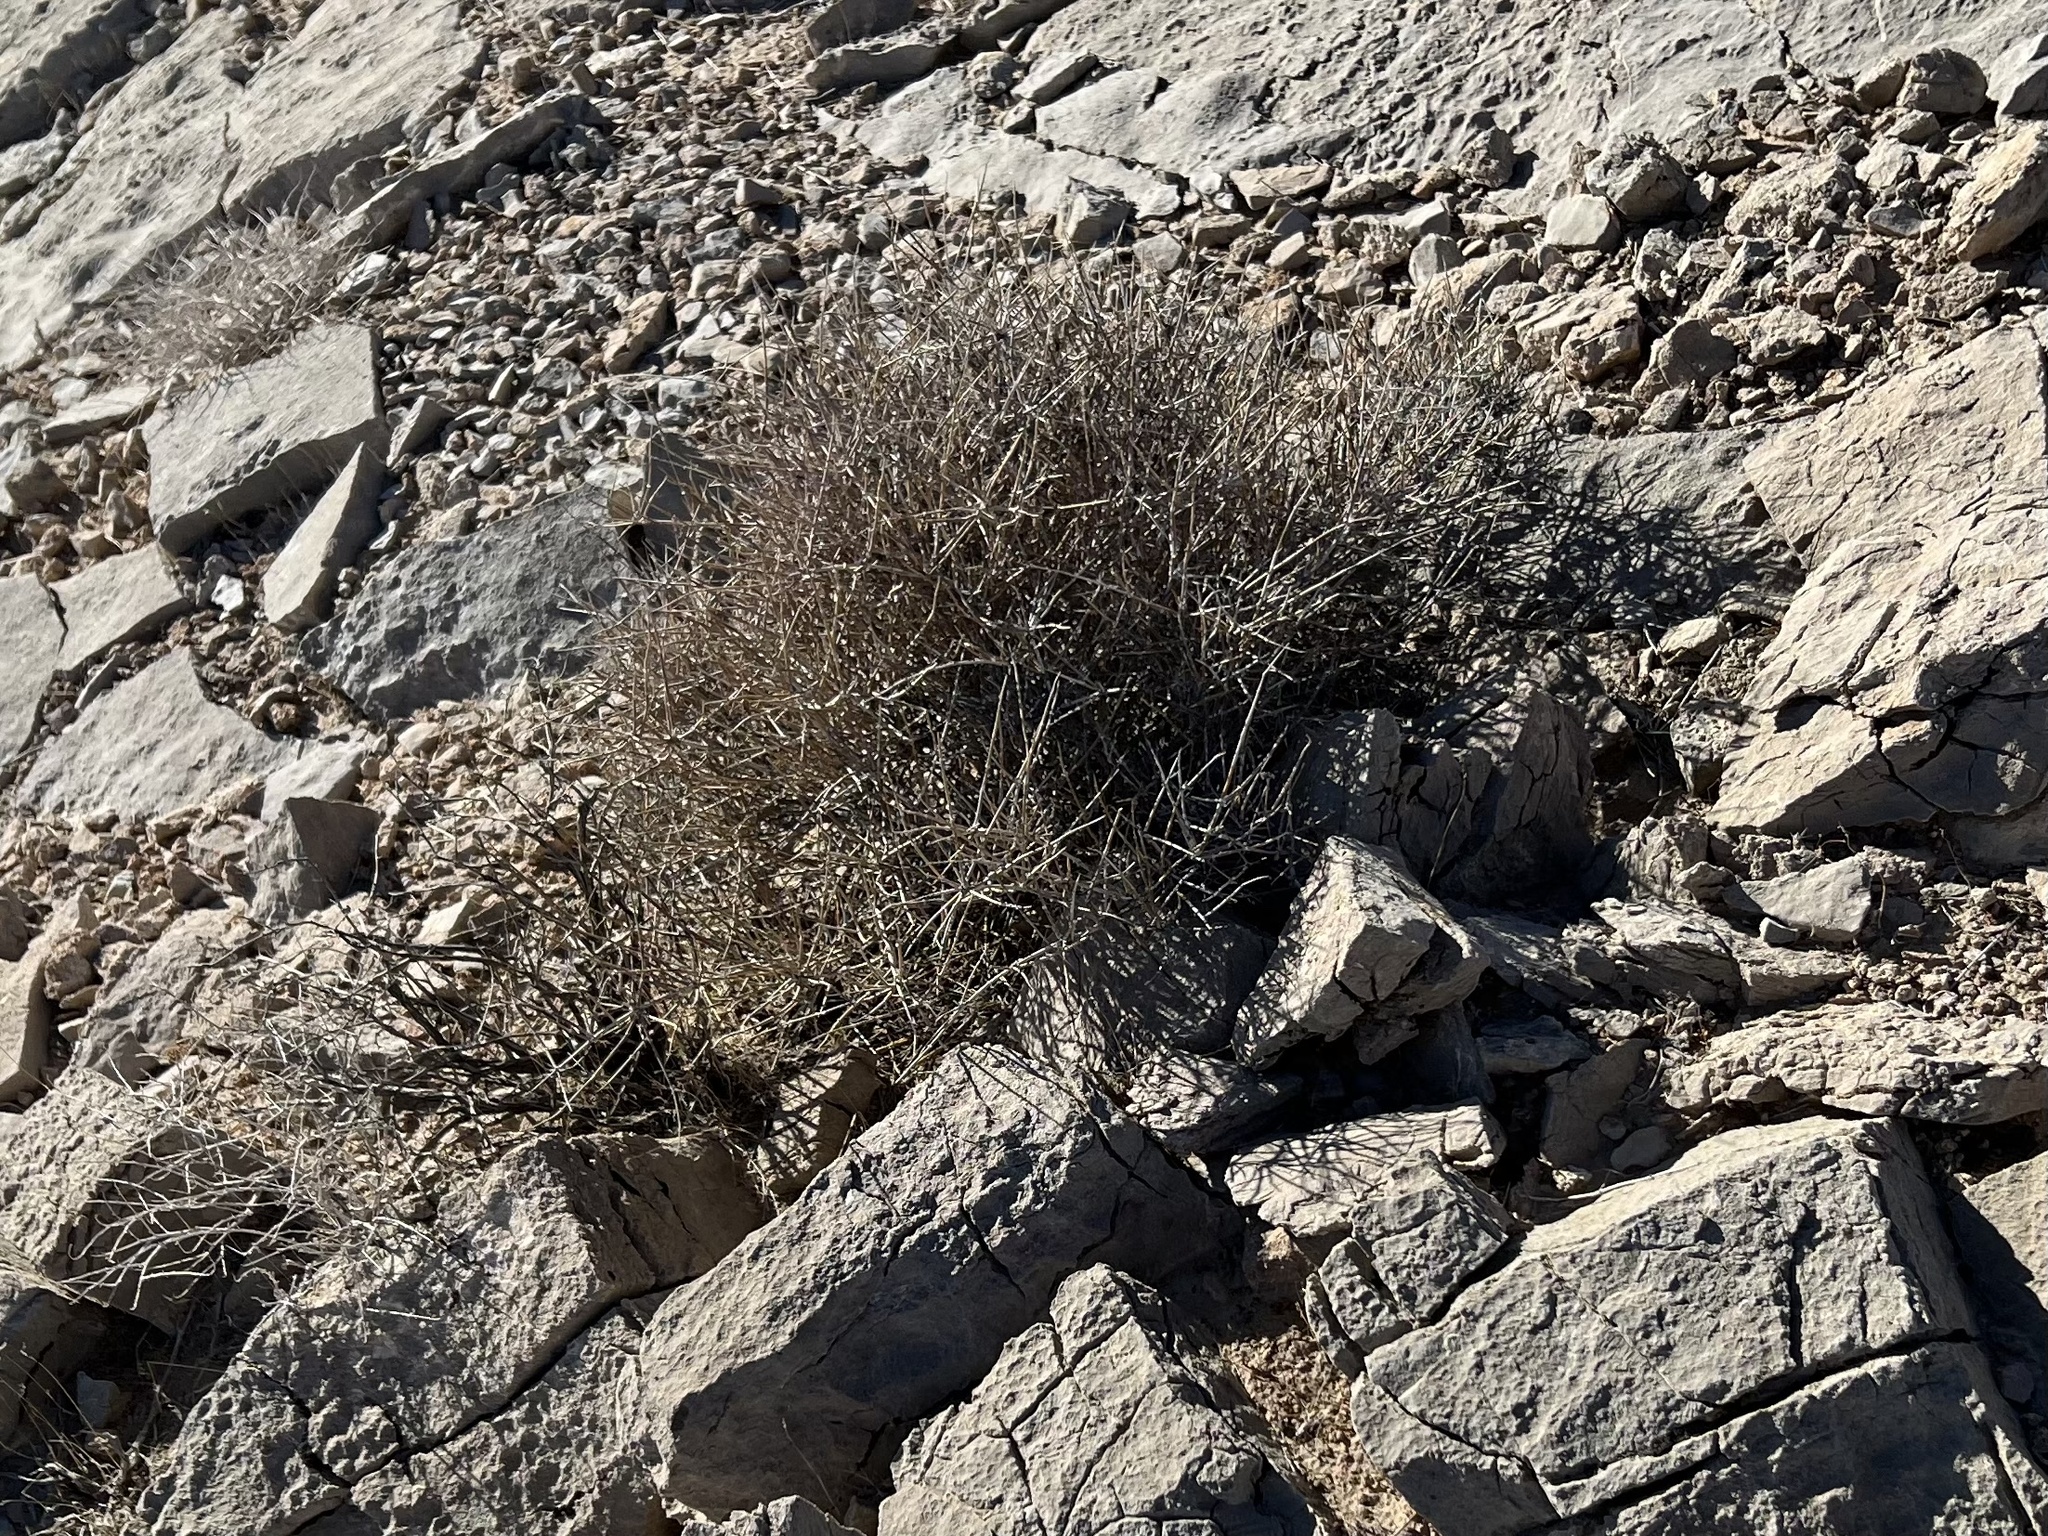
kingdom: Plantae
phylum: Tracheophyta
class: Gnetopsida
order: Ephedrales
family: Ephedraceae
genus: Ephedra
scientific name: Ephedra nevadensis
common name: Gray ephedra
